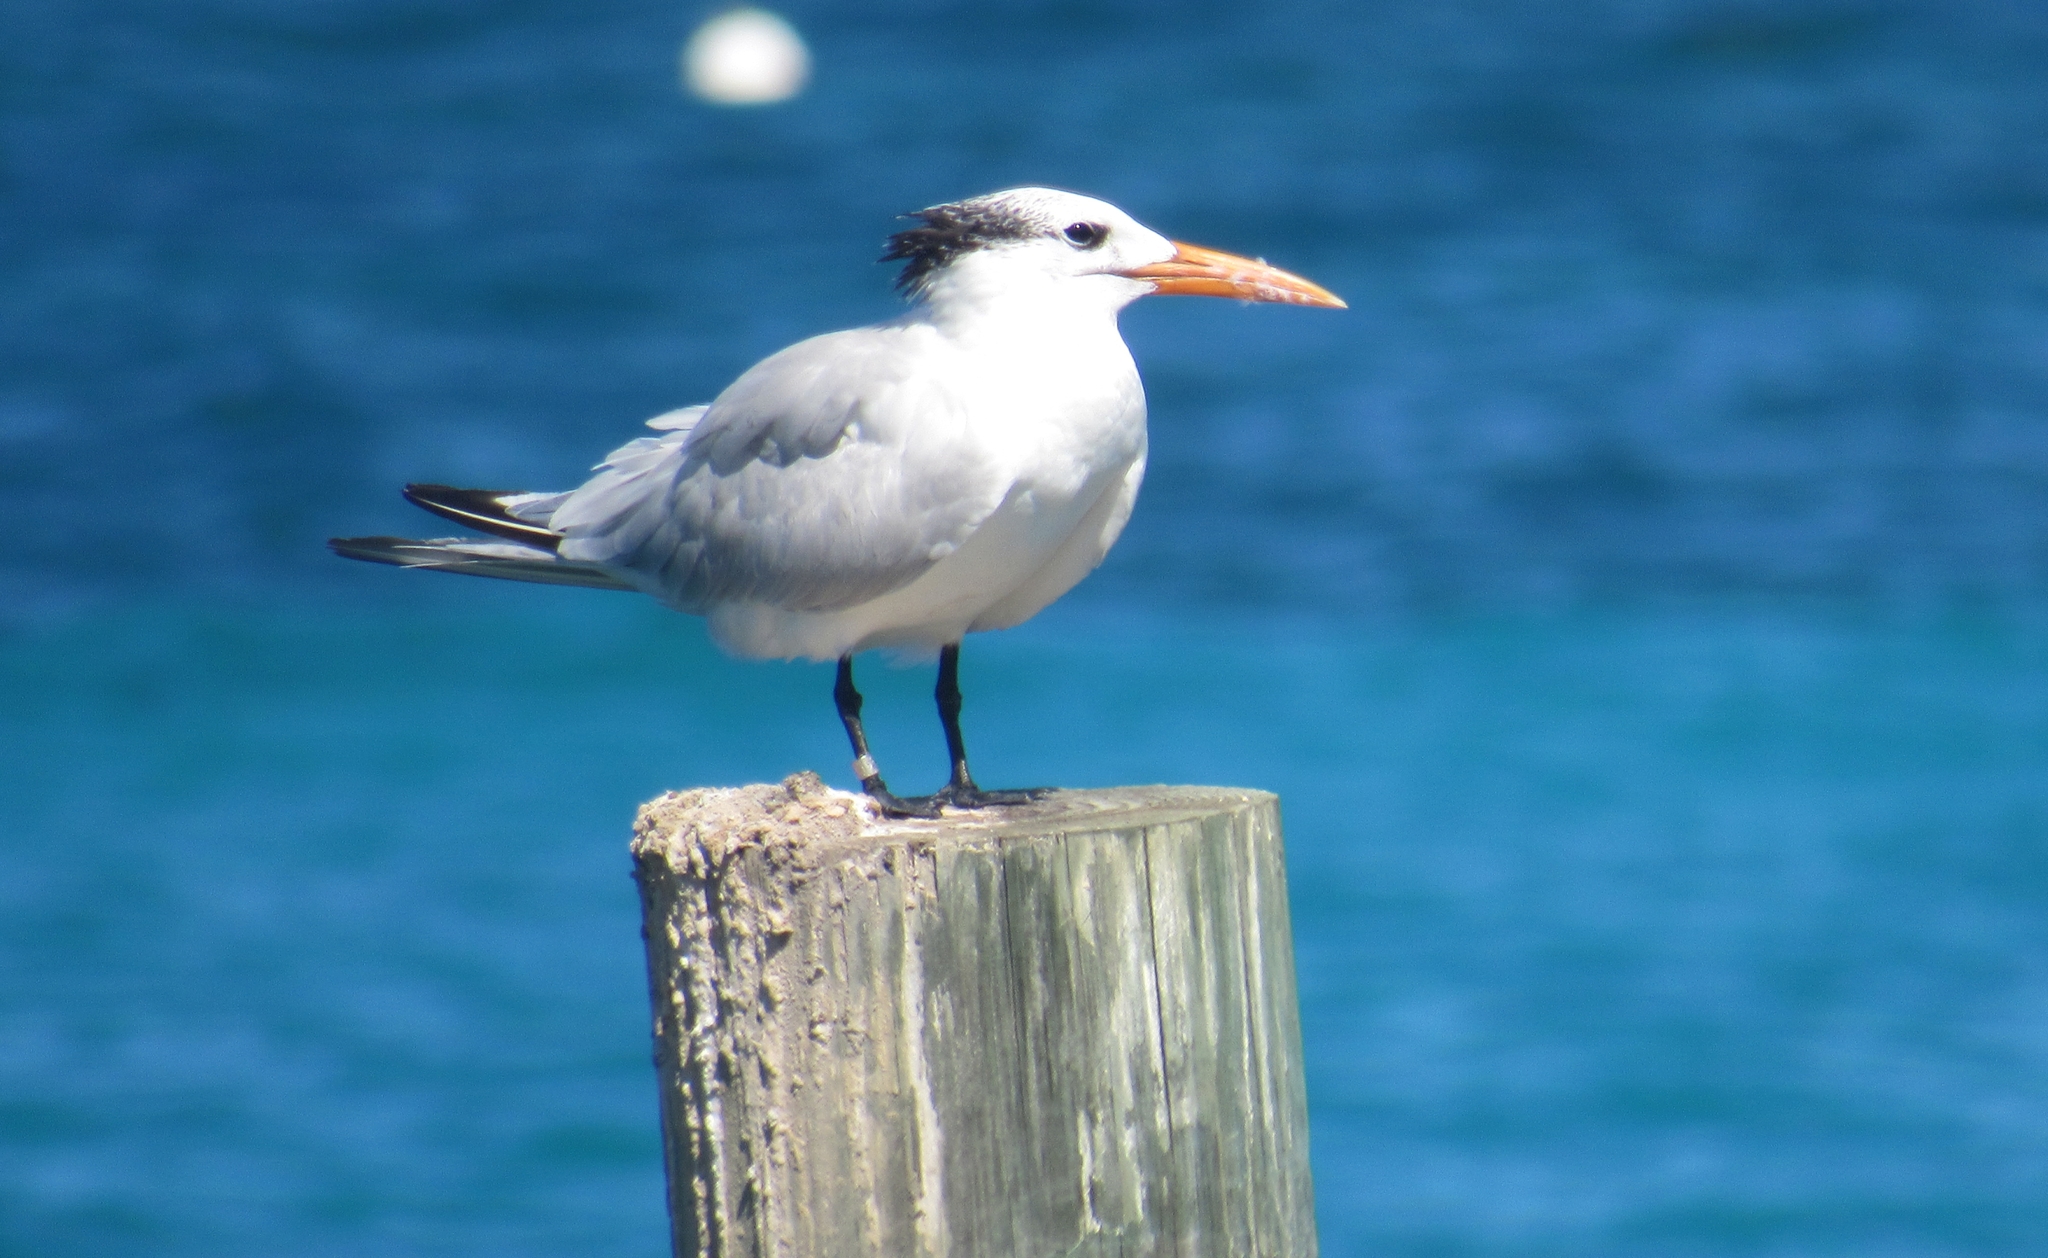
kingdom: Animalia
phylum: Chordata
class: Aves
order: Charadriiformes
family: Laridae
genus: Thalasseus
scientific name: Thalasseus maximus
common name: Royal tern
